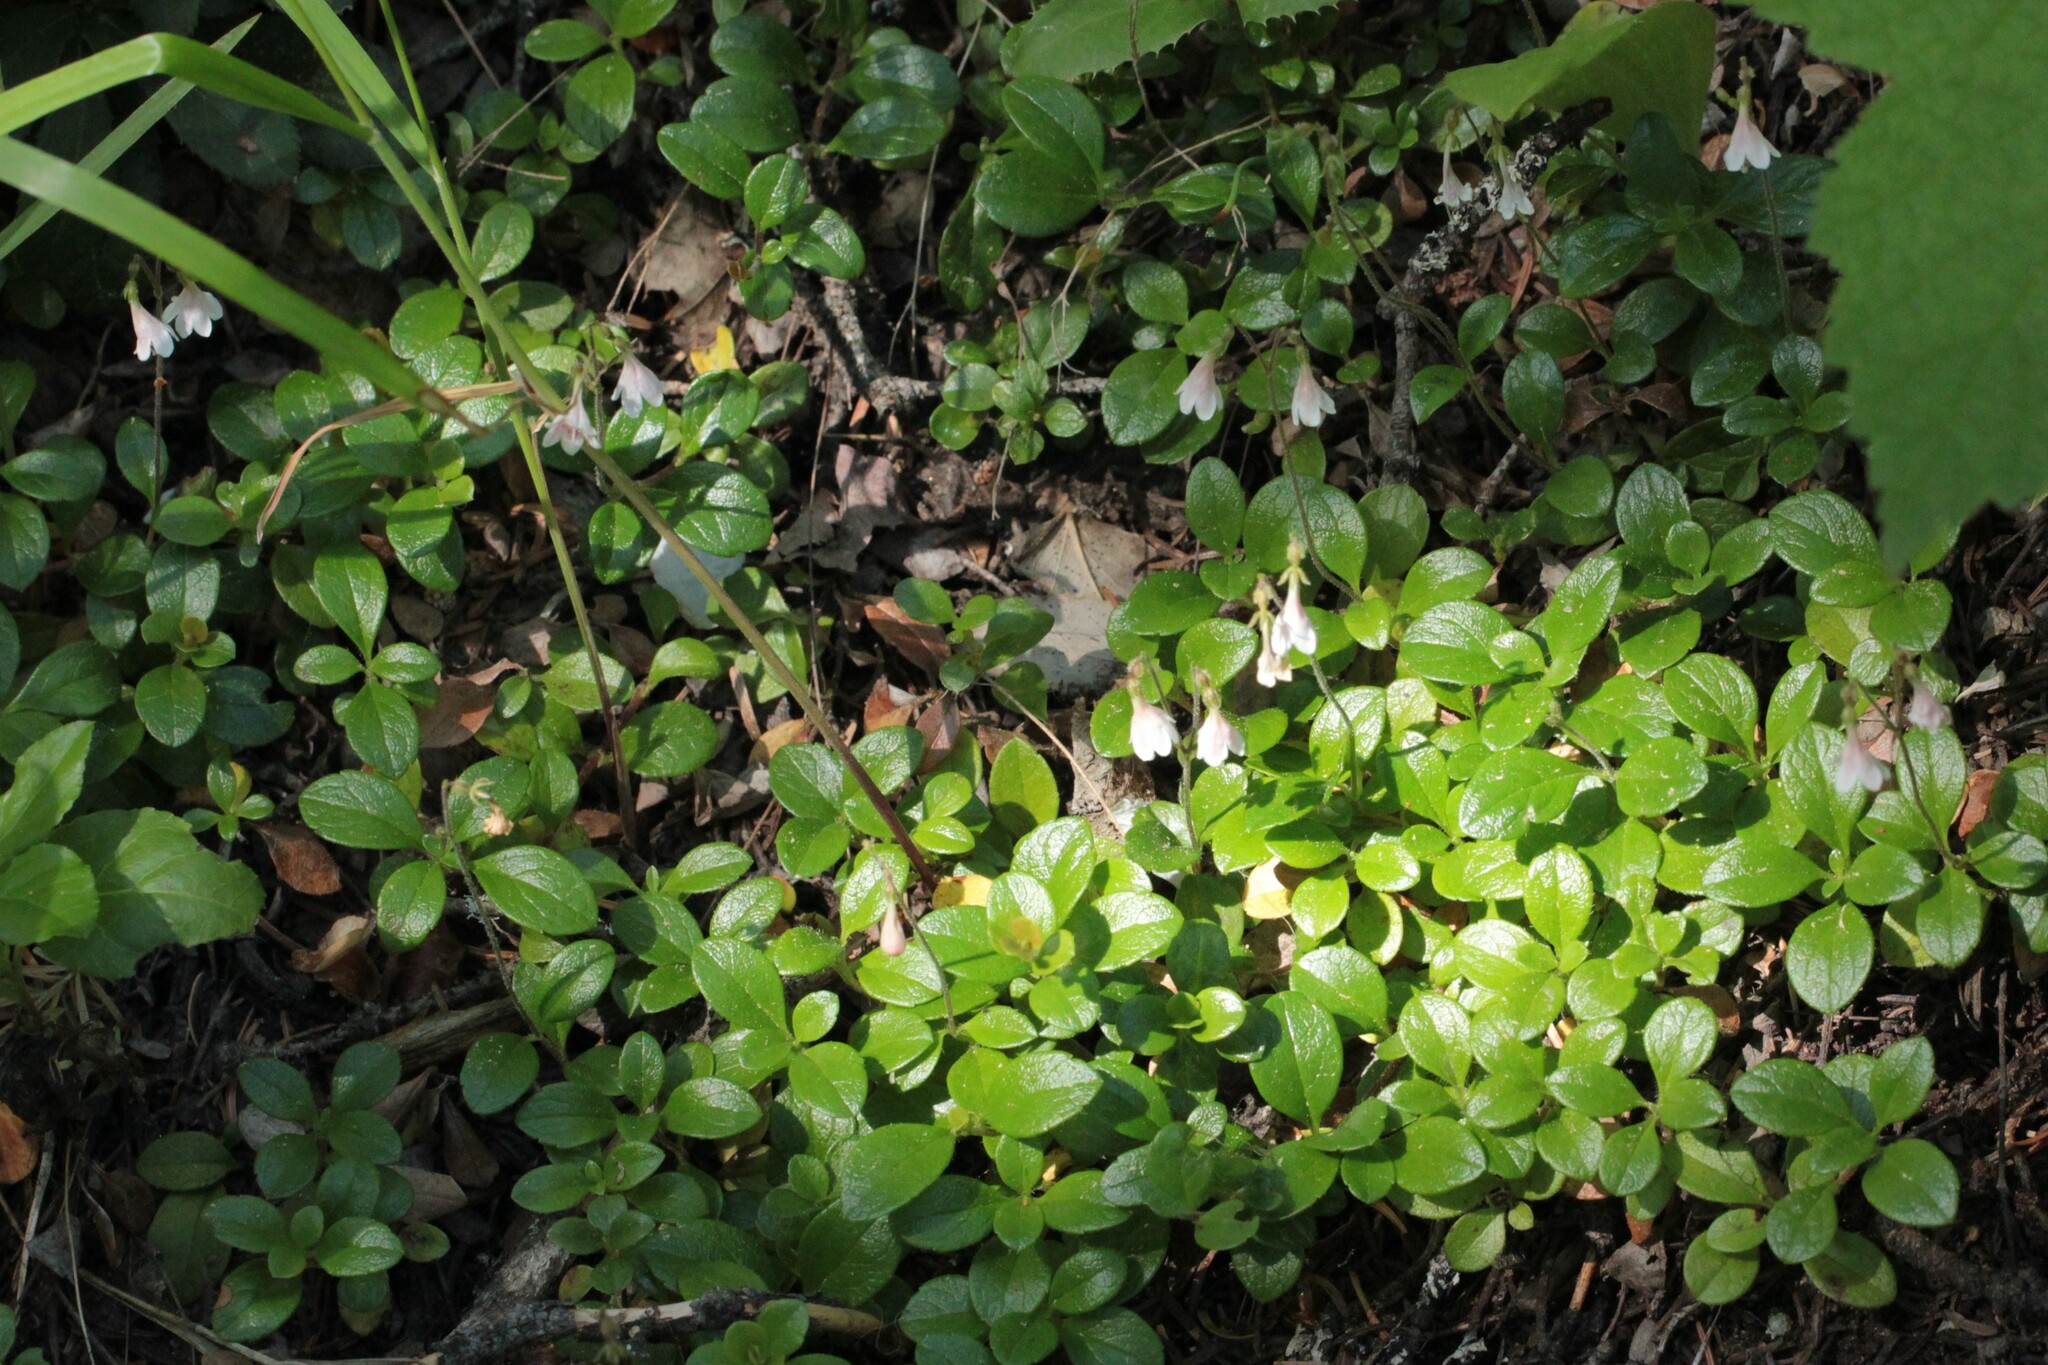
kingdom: Plantae
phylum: Tracheophyta
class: Magnoliopsida
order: Dipsacales
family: Caprifoliaceae
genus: Linnaea
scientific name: Linnaea borealis
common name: Twinflower
